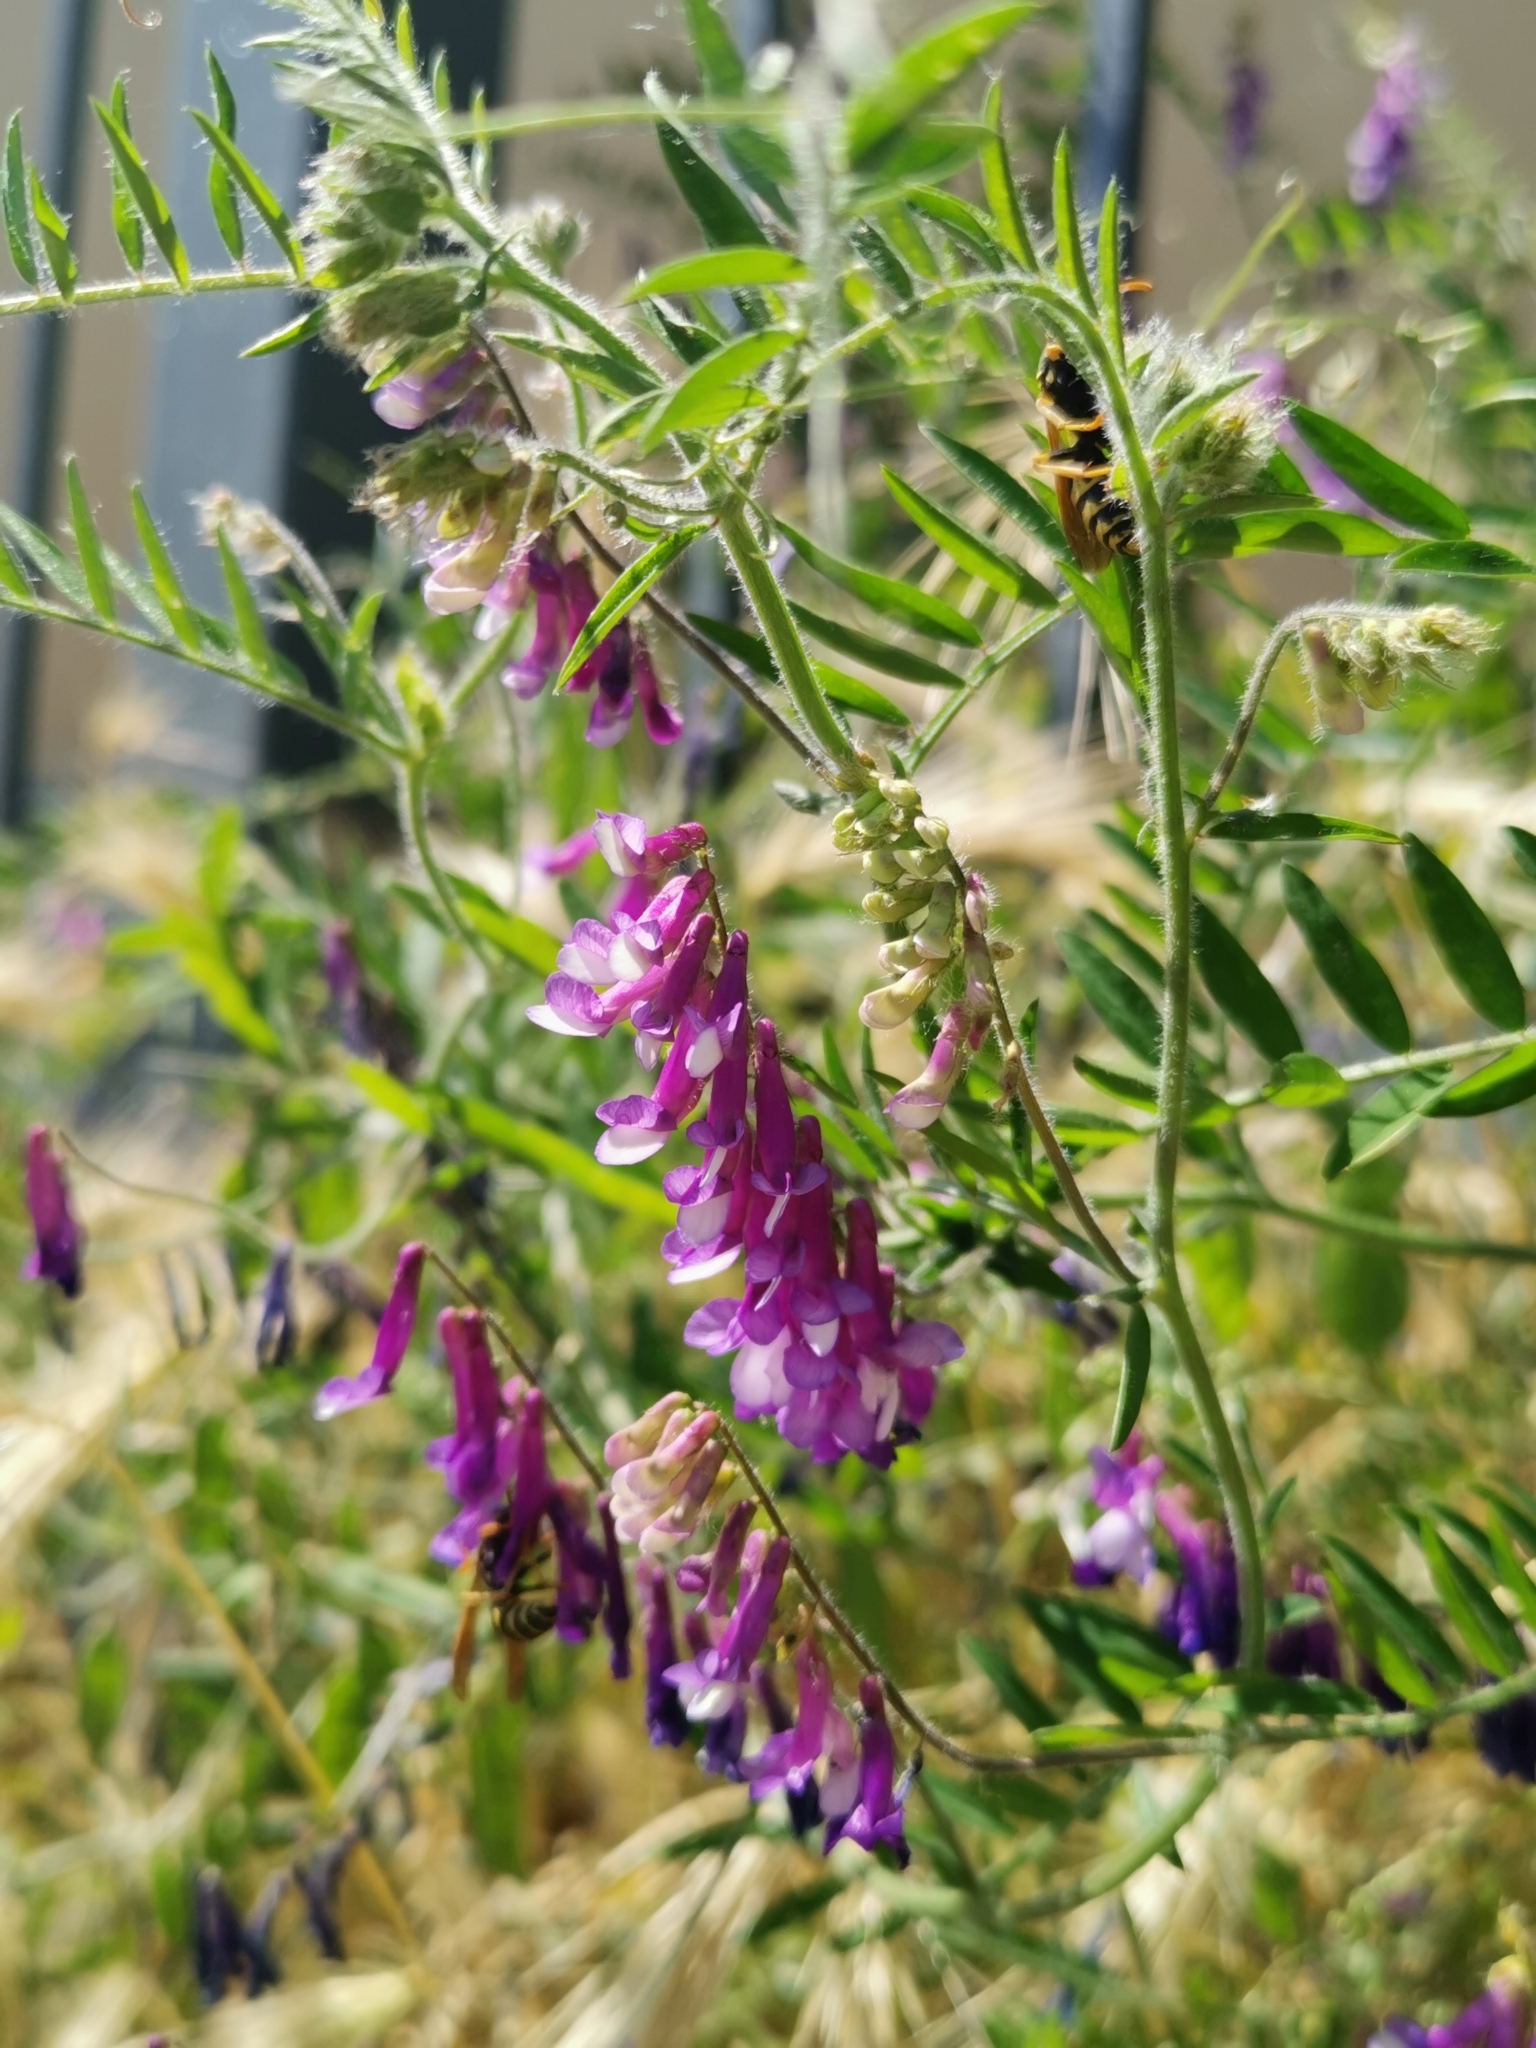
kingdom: Plantae
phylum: Tracheophyta
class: Magnoliopsida
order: Fabales
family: Fabaceae
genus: Vicia
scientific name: Vicia villosa
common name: Fodder vetch
